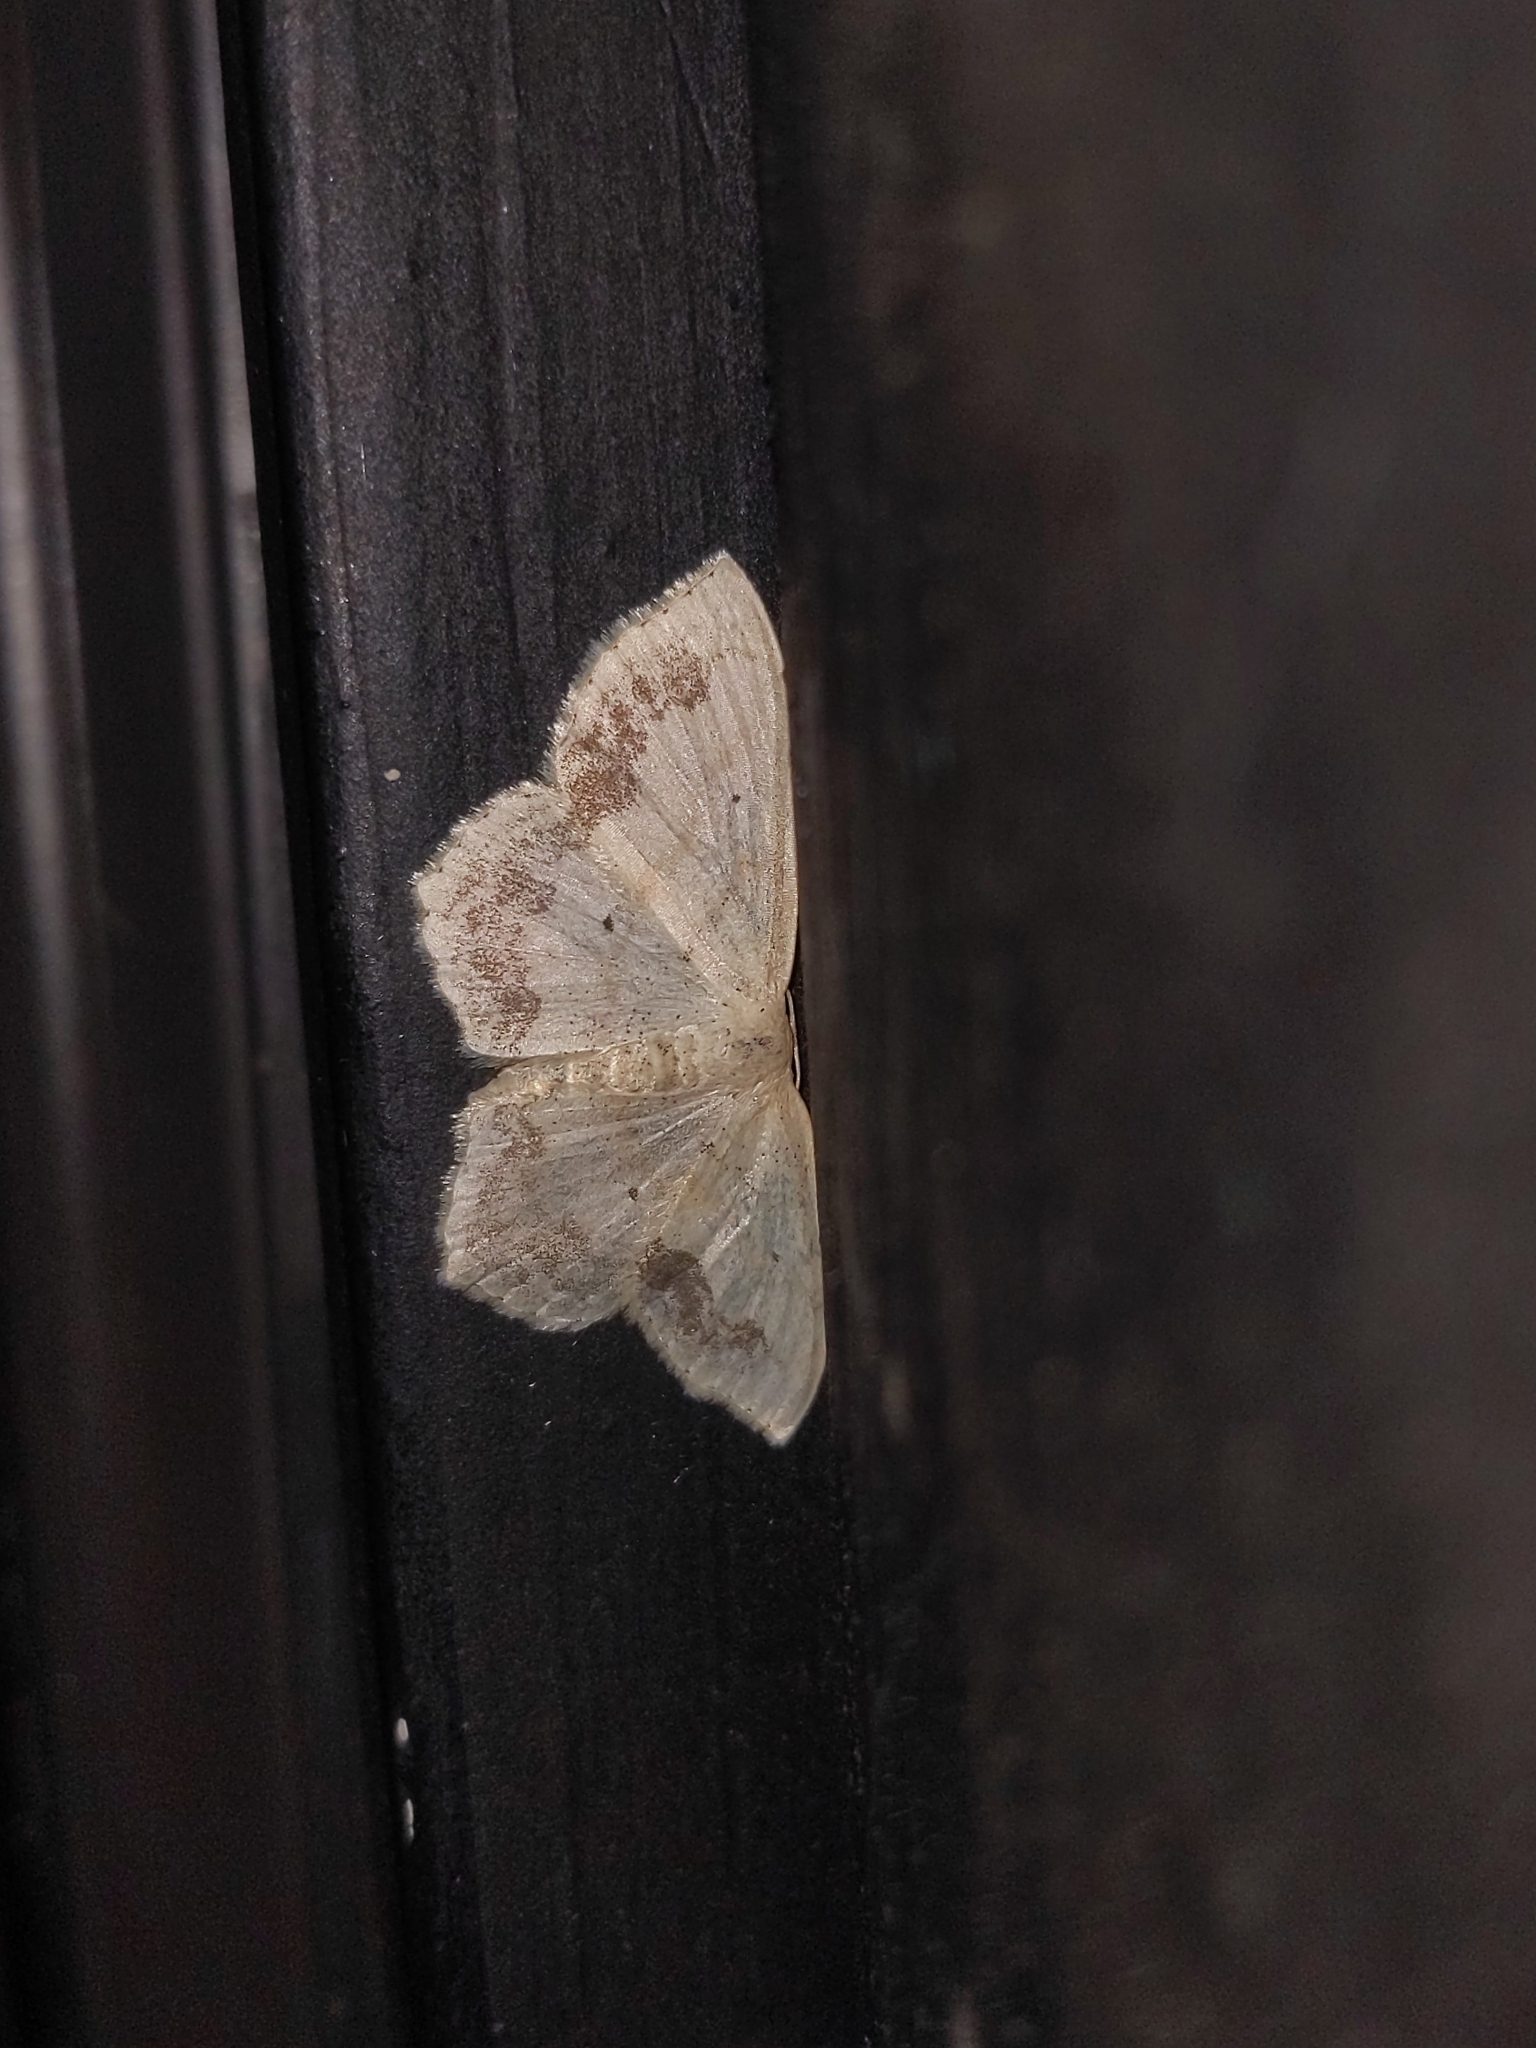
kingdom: Animalia
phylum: Arthropoda
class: Insecta
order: Lepidoptera
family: Geometridae
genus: Scopula
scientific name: Scopula limboundata
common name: Large lace border
